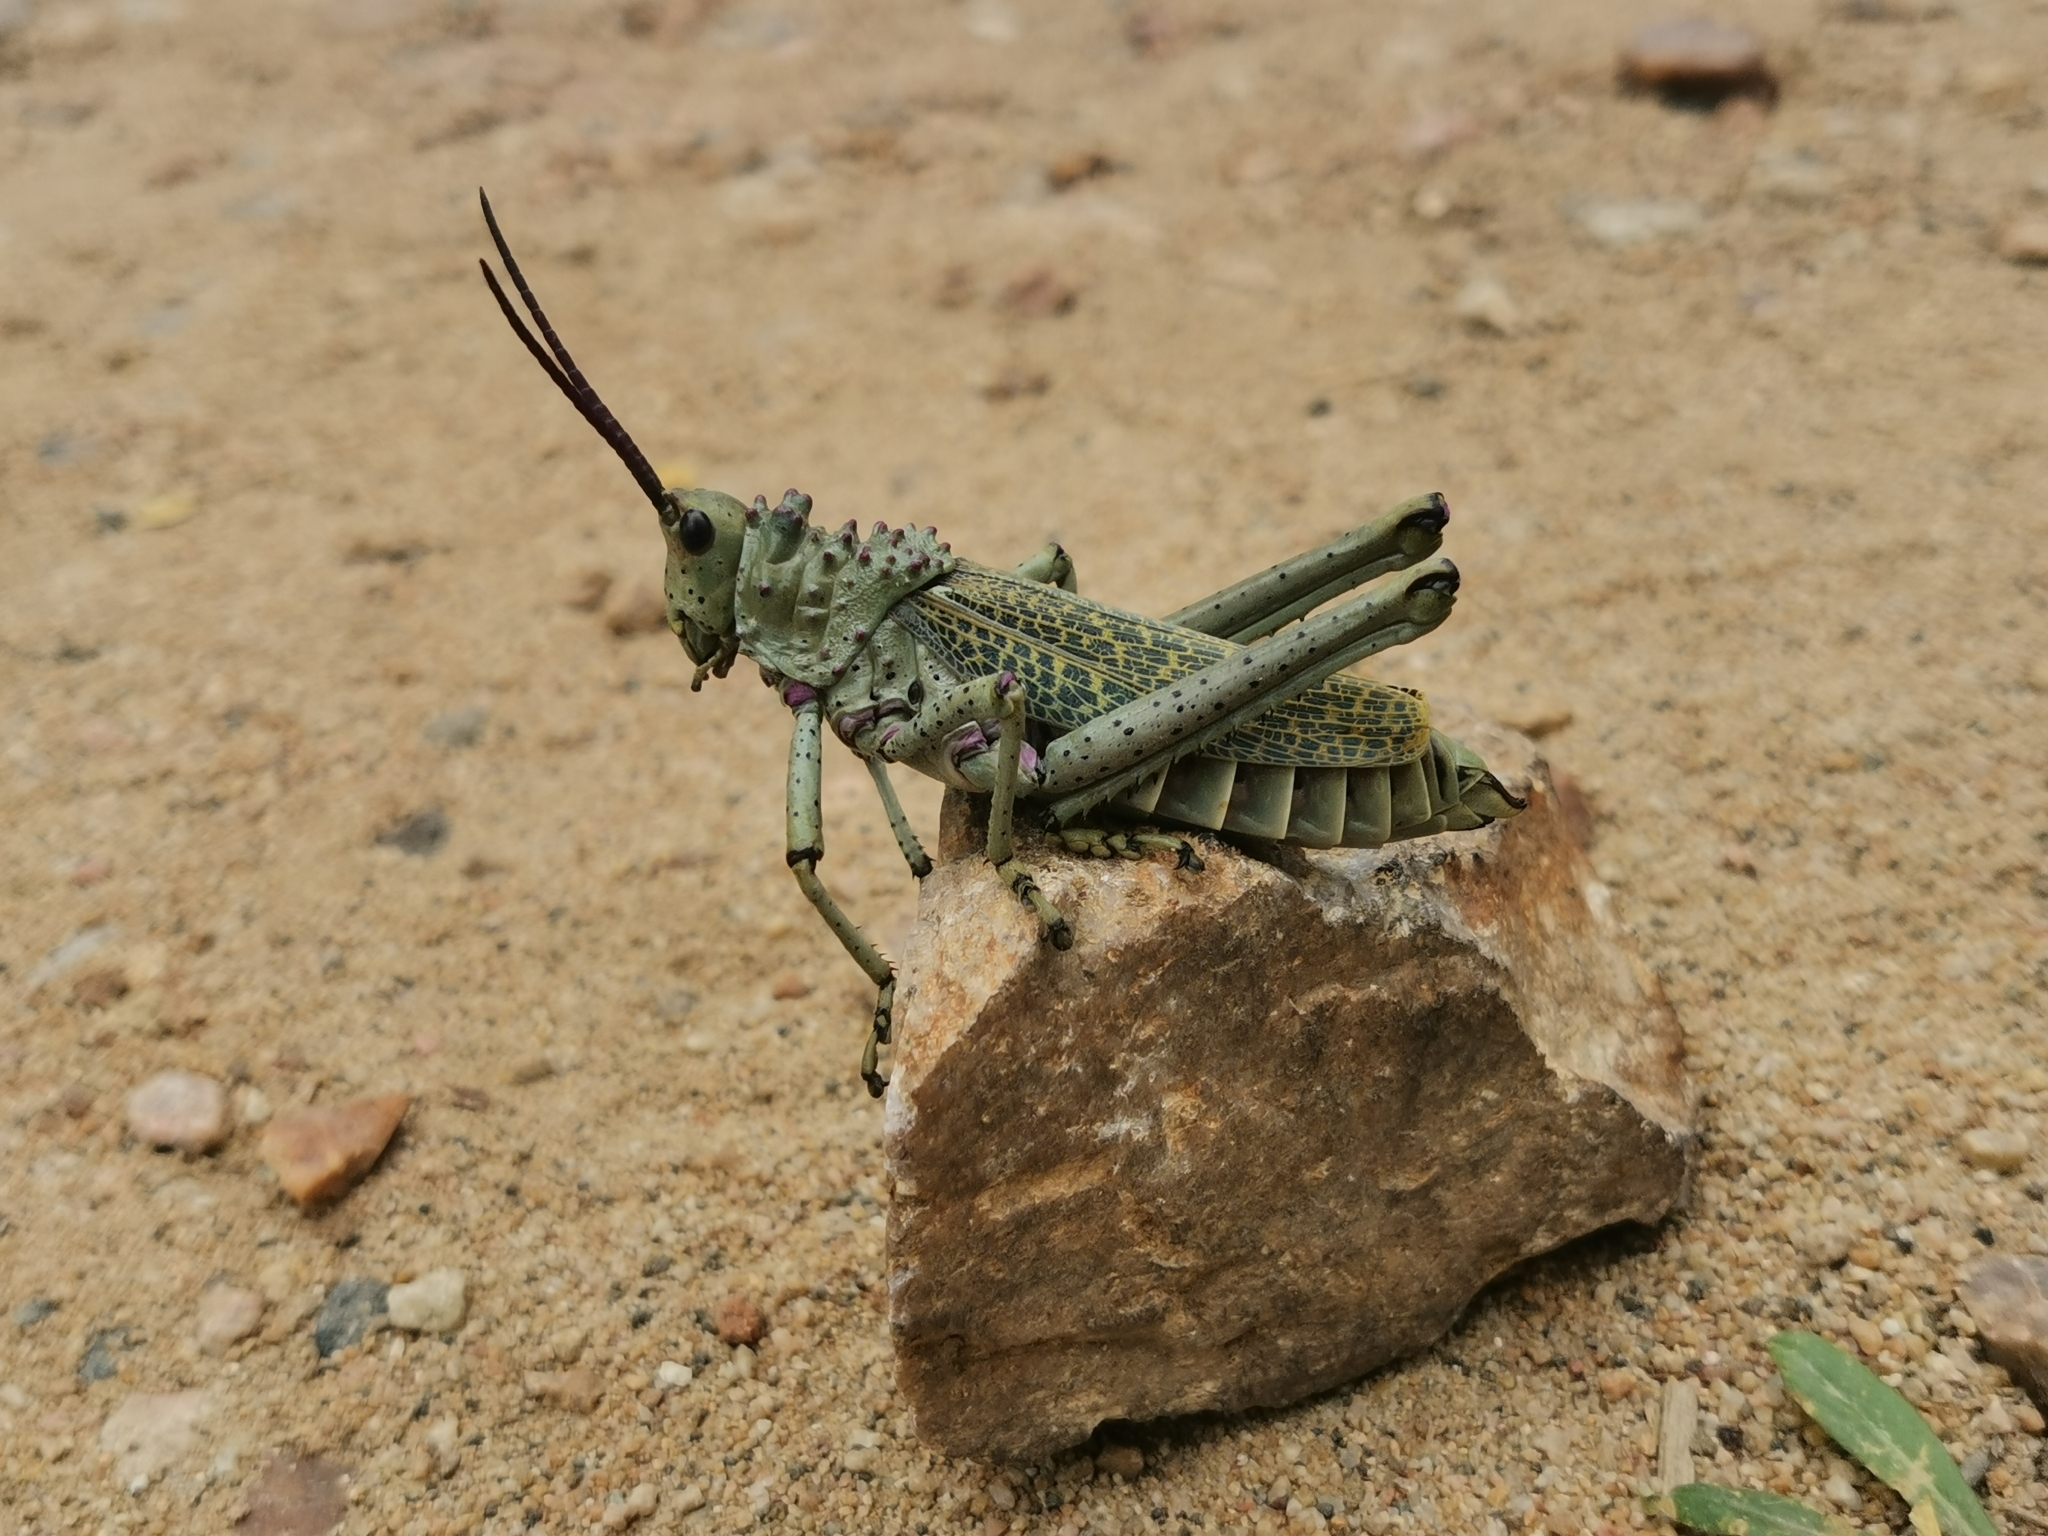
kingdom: Animalia
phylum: Arthropoda
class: Insecta
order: Orthoptera
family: Pyrgomorphidae
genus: Phymateus
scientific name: Phymateus baccatus
